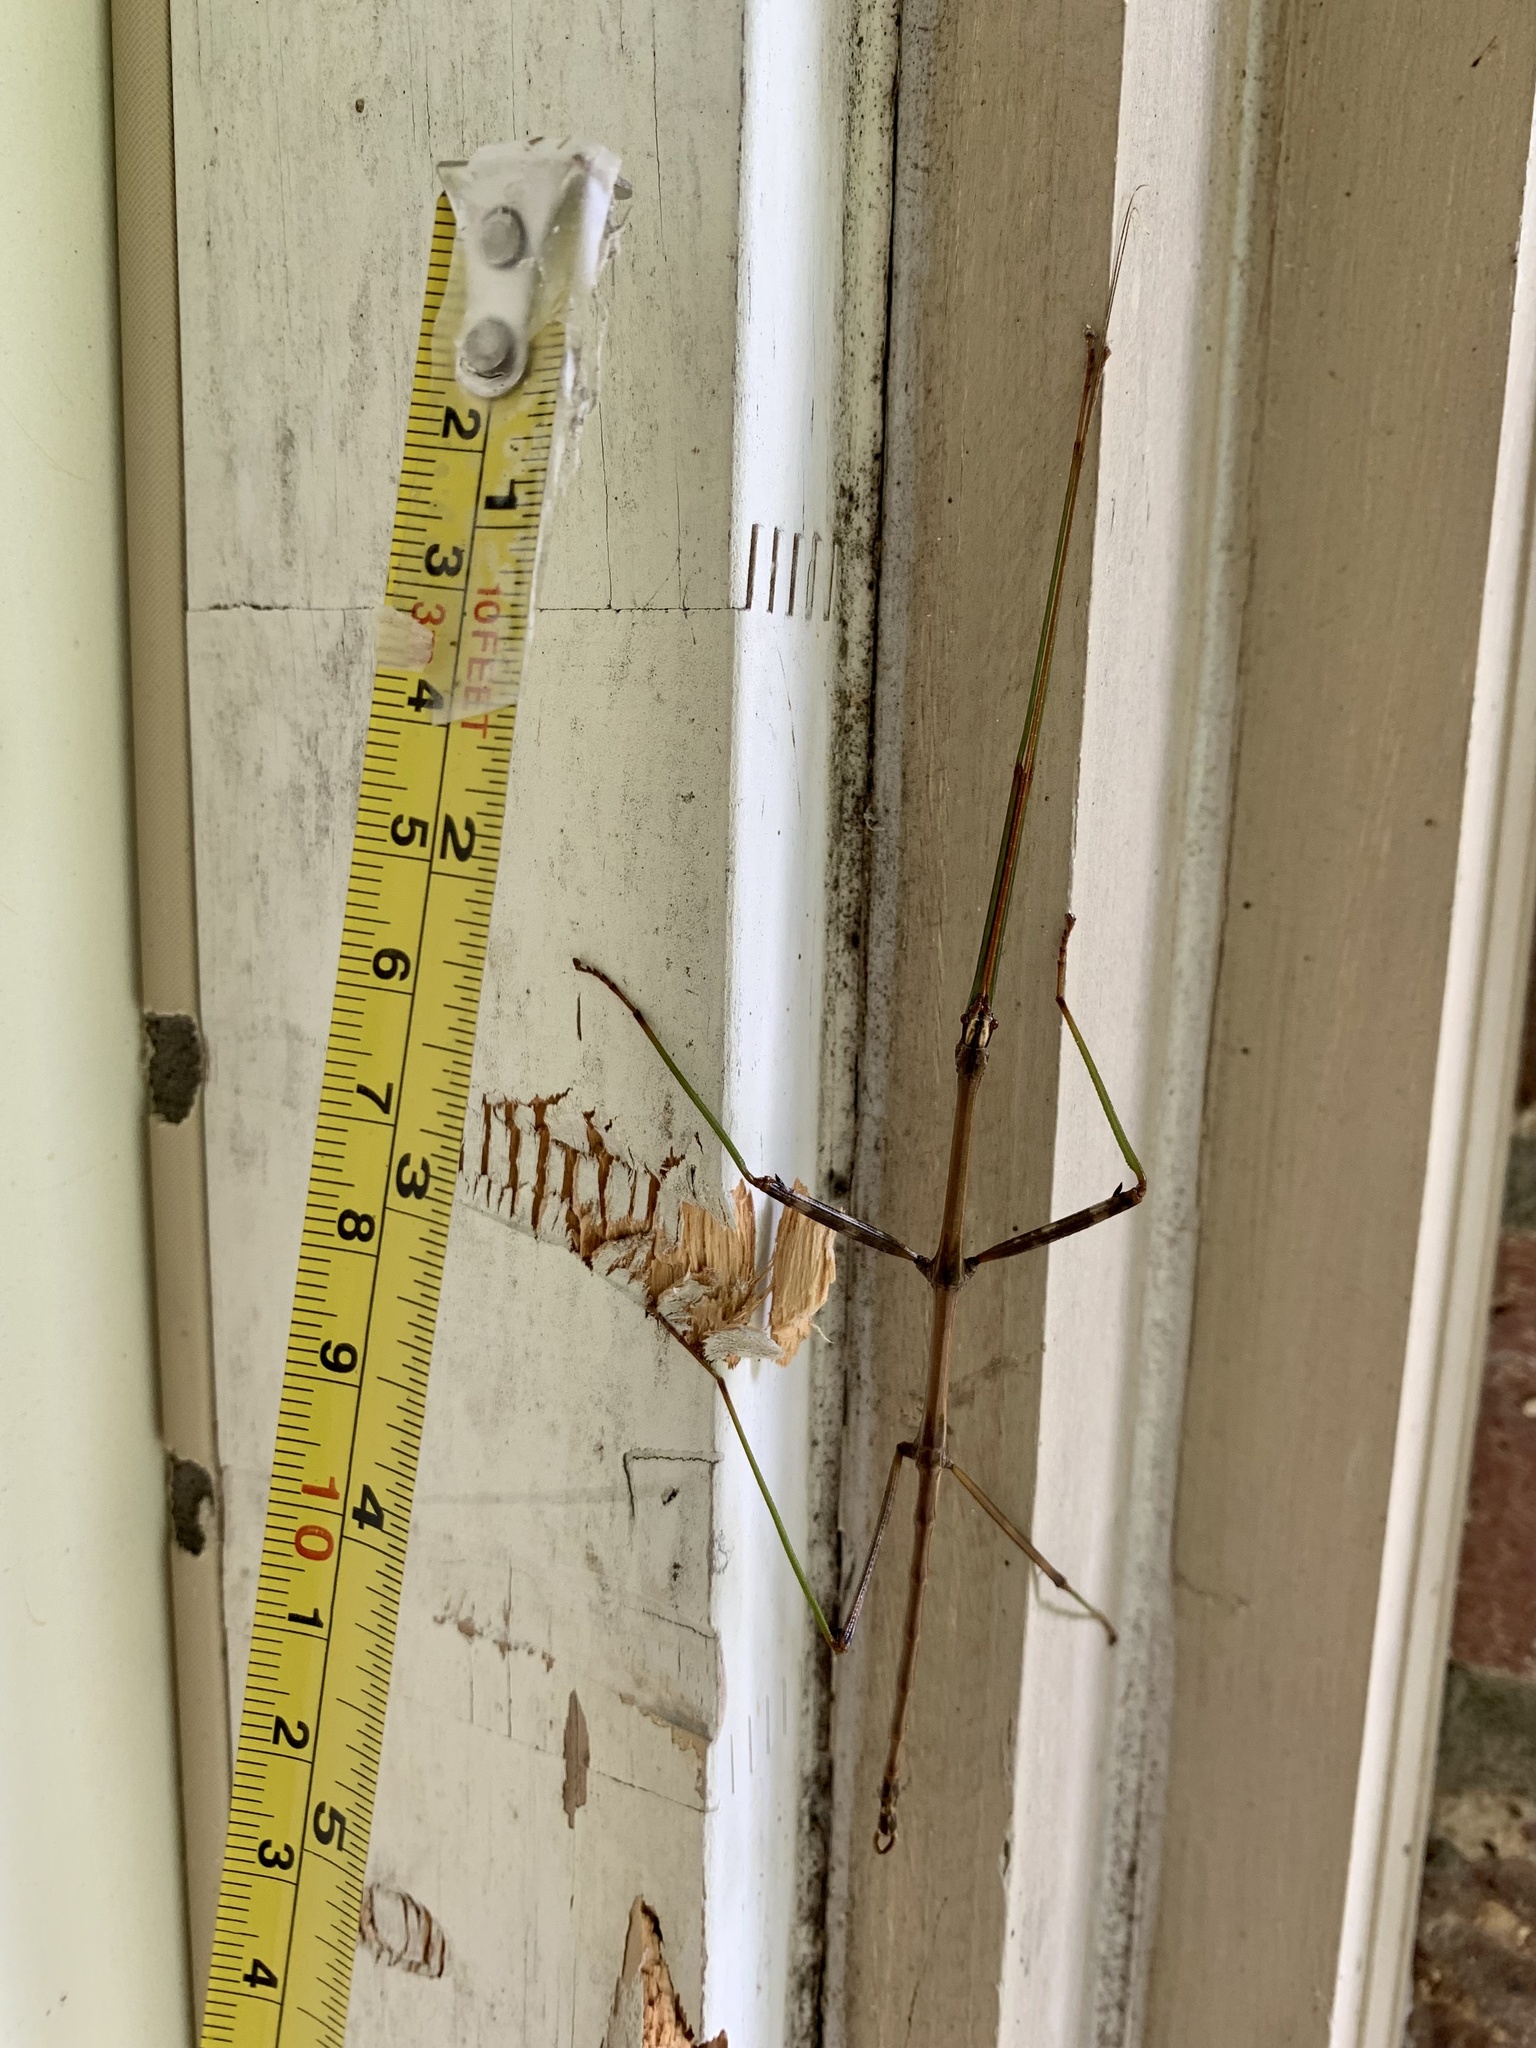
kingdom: Animalia
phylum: Arthropoda
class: Insecta
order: Phasmida
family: Diapheromeridae
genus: Diapheromera
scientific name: Diapheromera femorata
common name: Common american walkingstick
